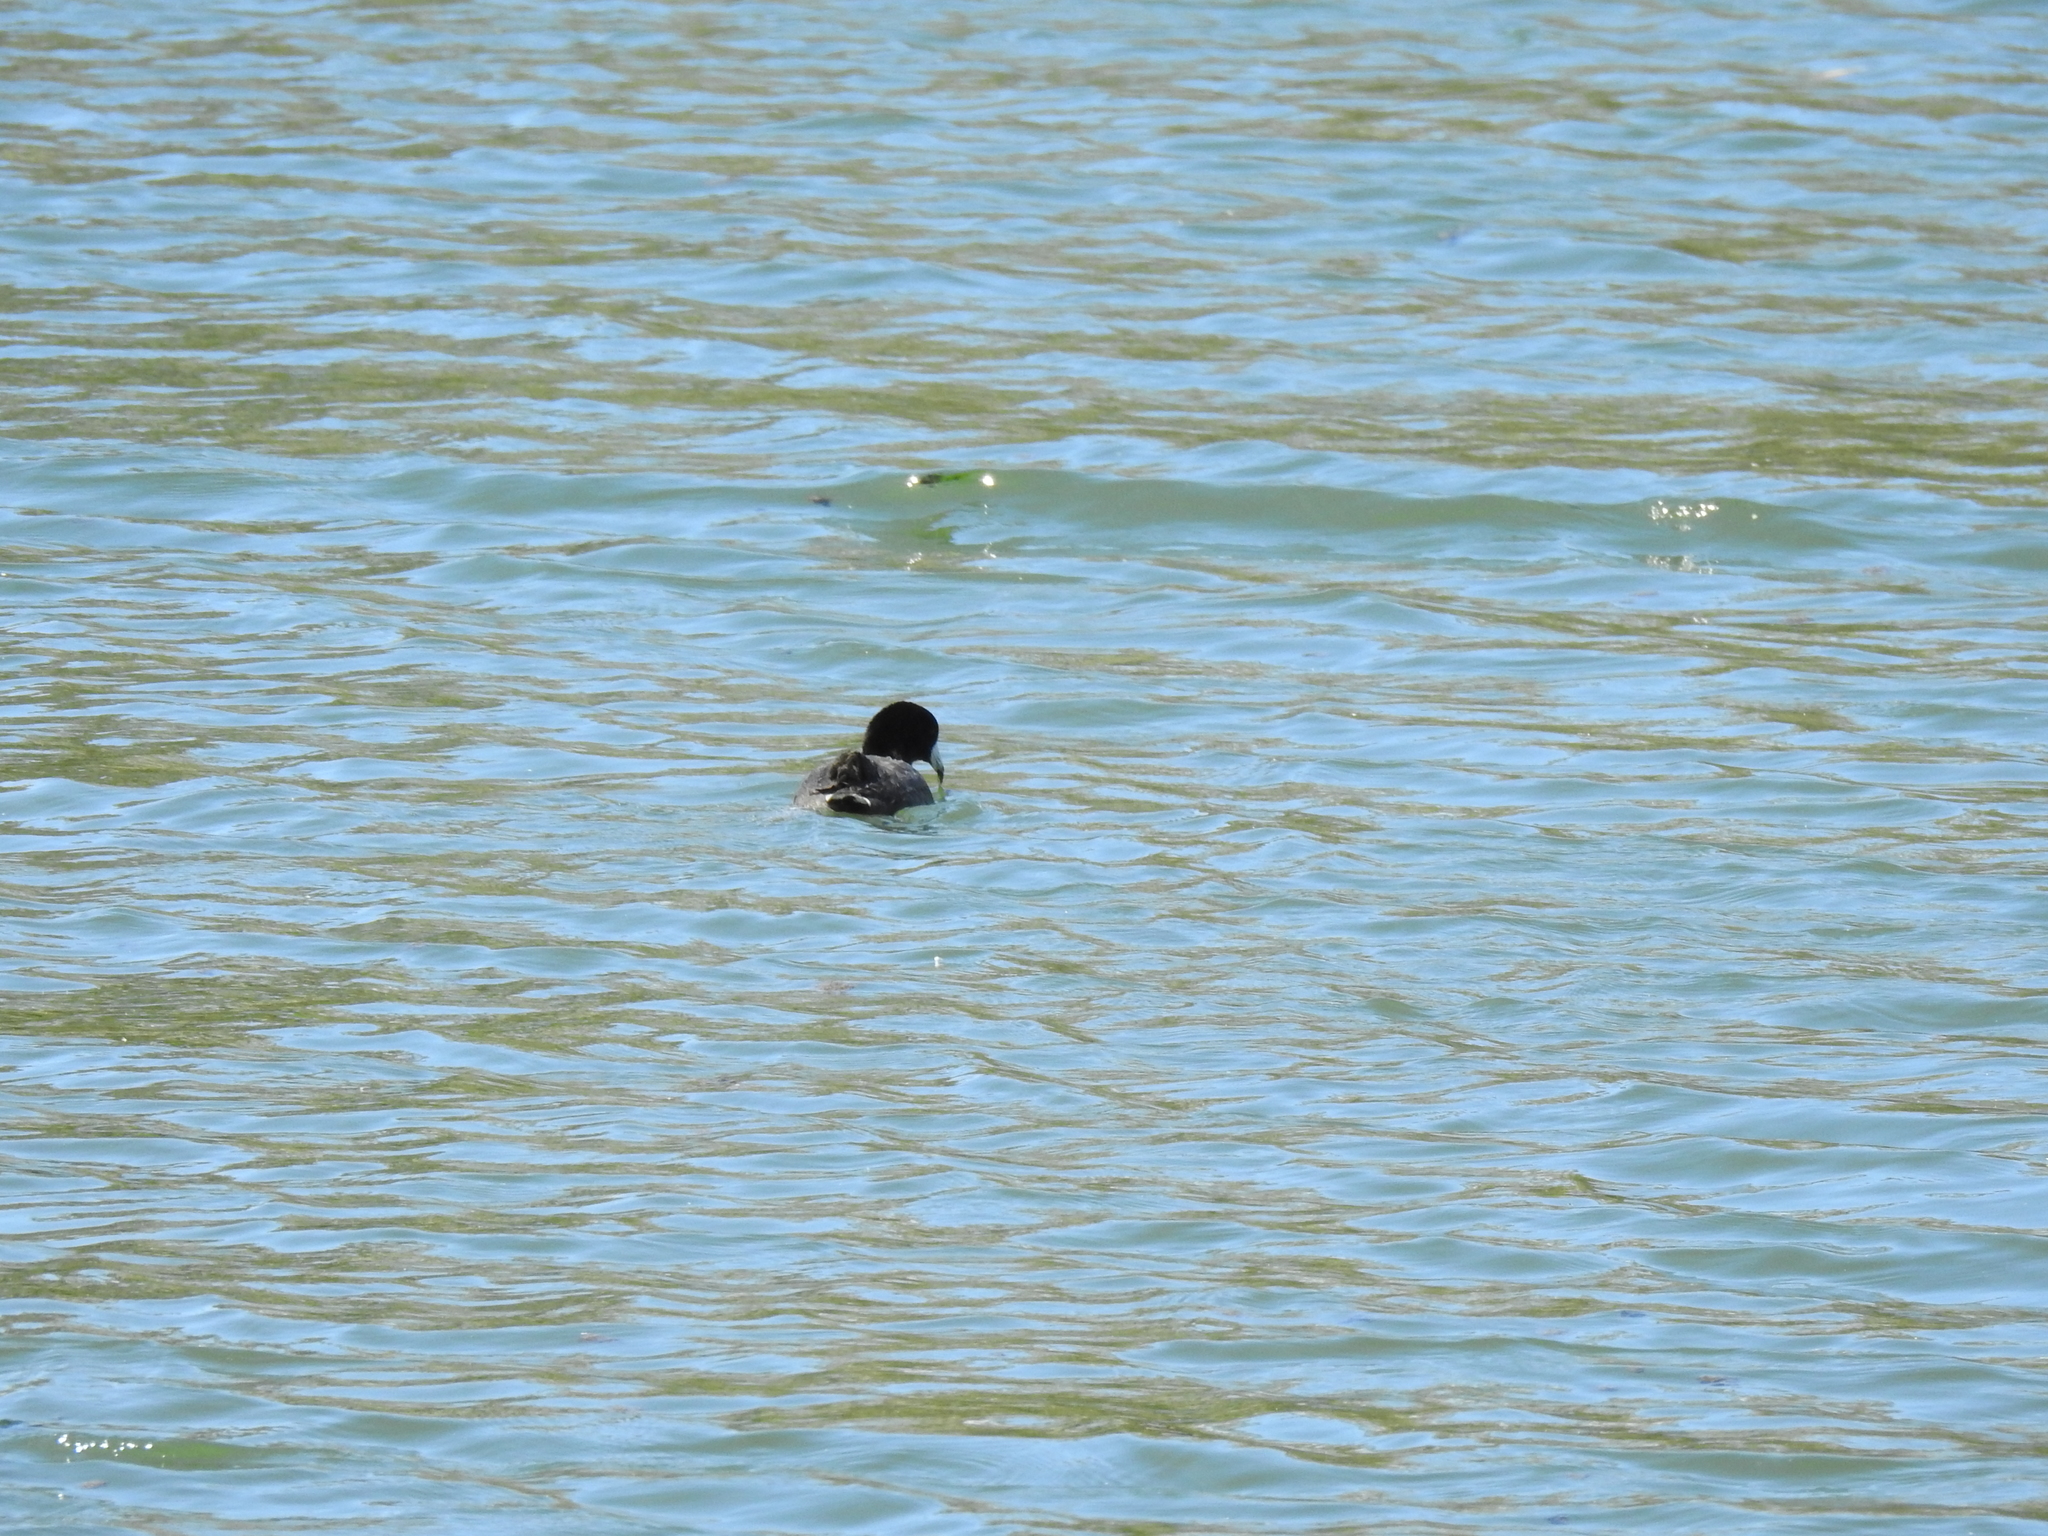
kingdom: Animalia
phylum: Chordata
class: Aves
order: Gruiformes
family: Rallidae
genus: Fulica
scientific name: Fulica americana
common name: American coot
